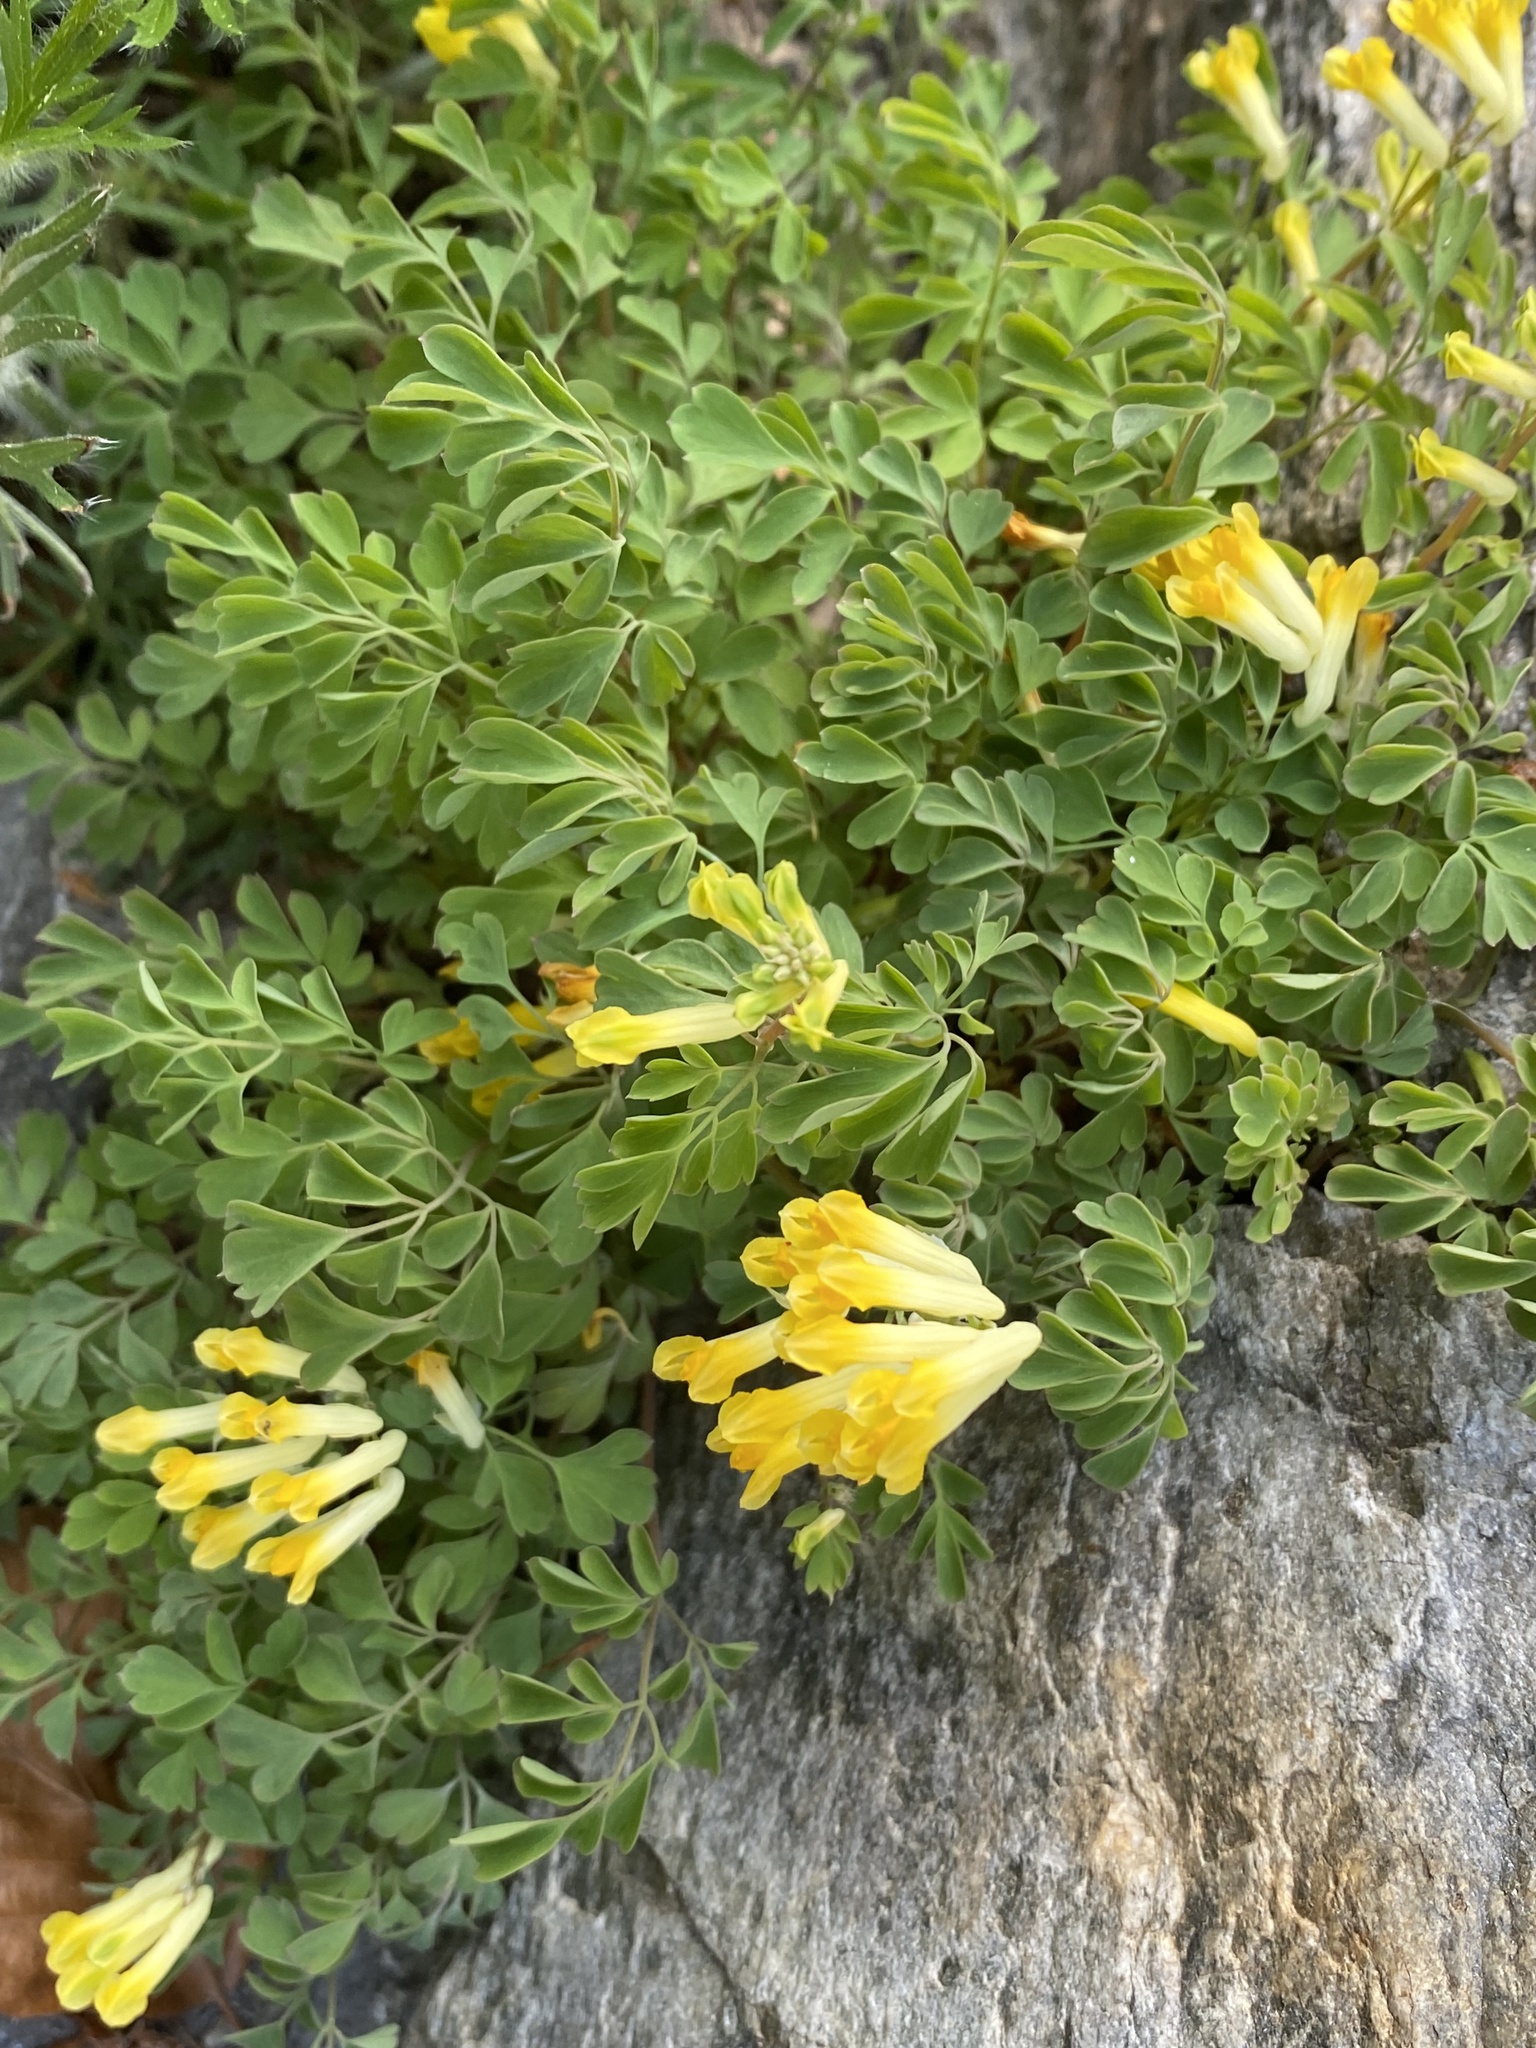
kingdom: Plantae
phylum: Tracheophyta
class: Magnoliopsida
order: Ranunculales
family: Papaveraceae
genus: Pseudofumaria
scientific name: Pseudofumaria lutea
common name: Yellow corydalis
